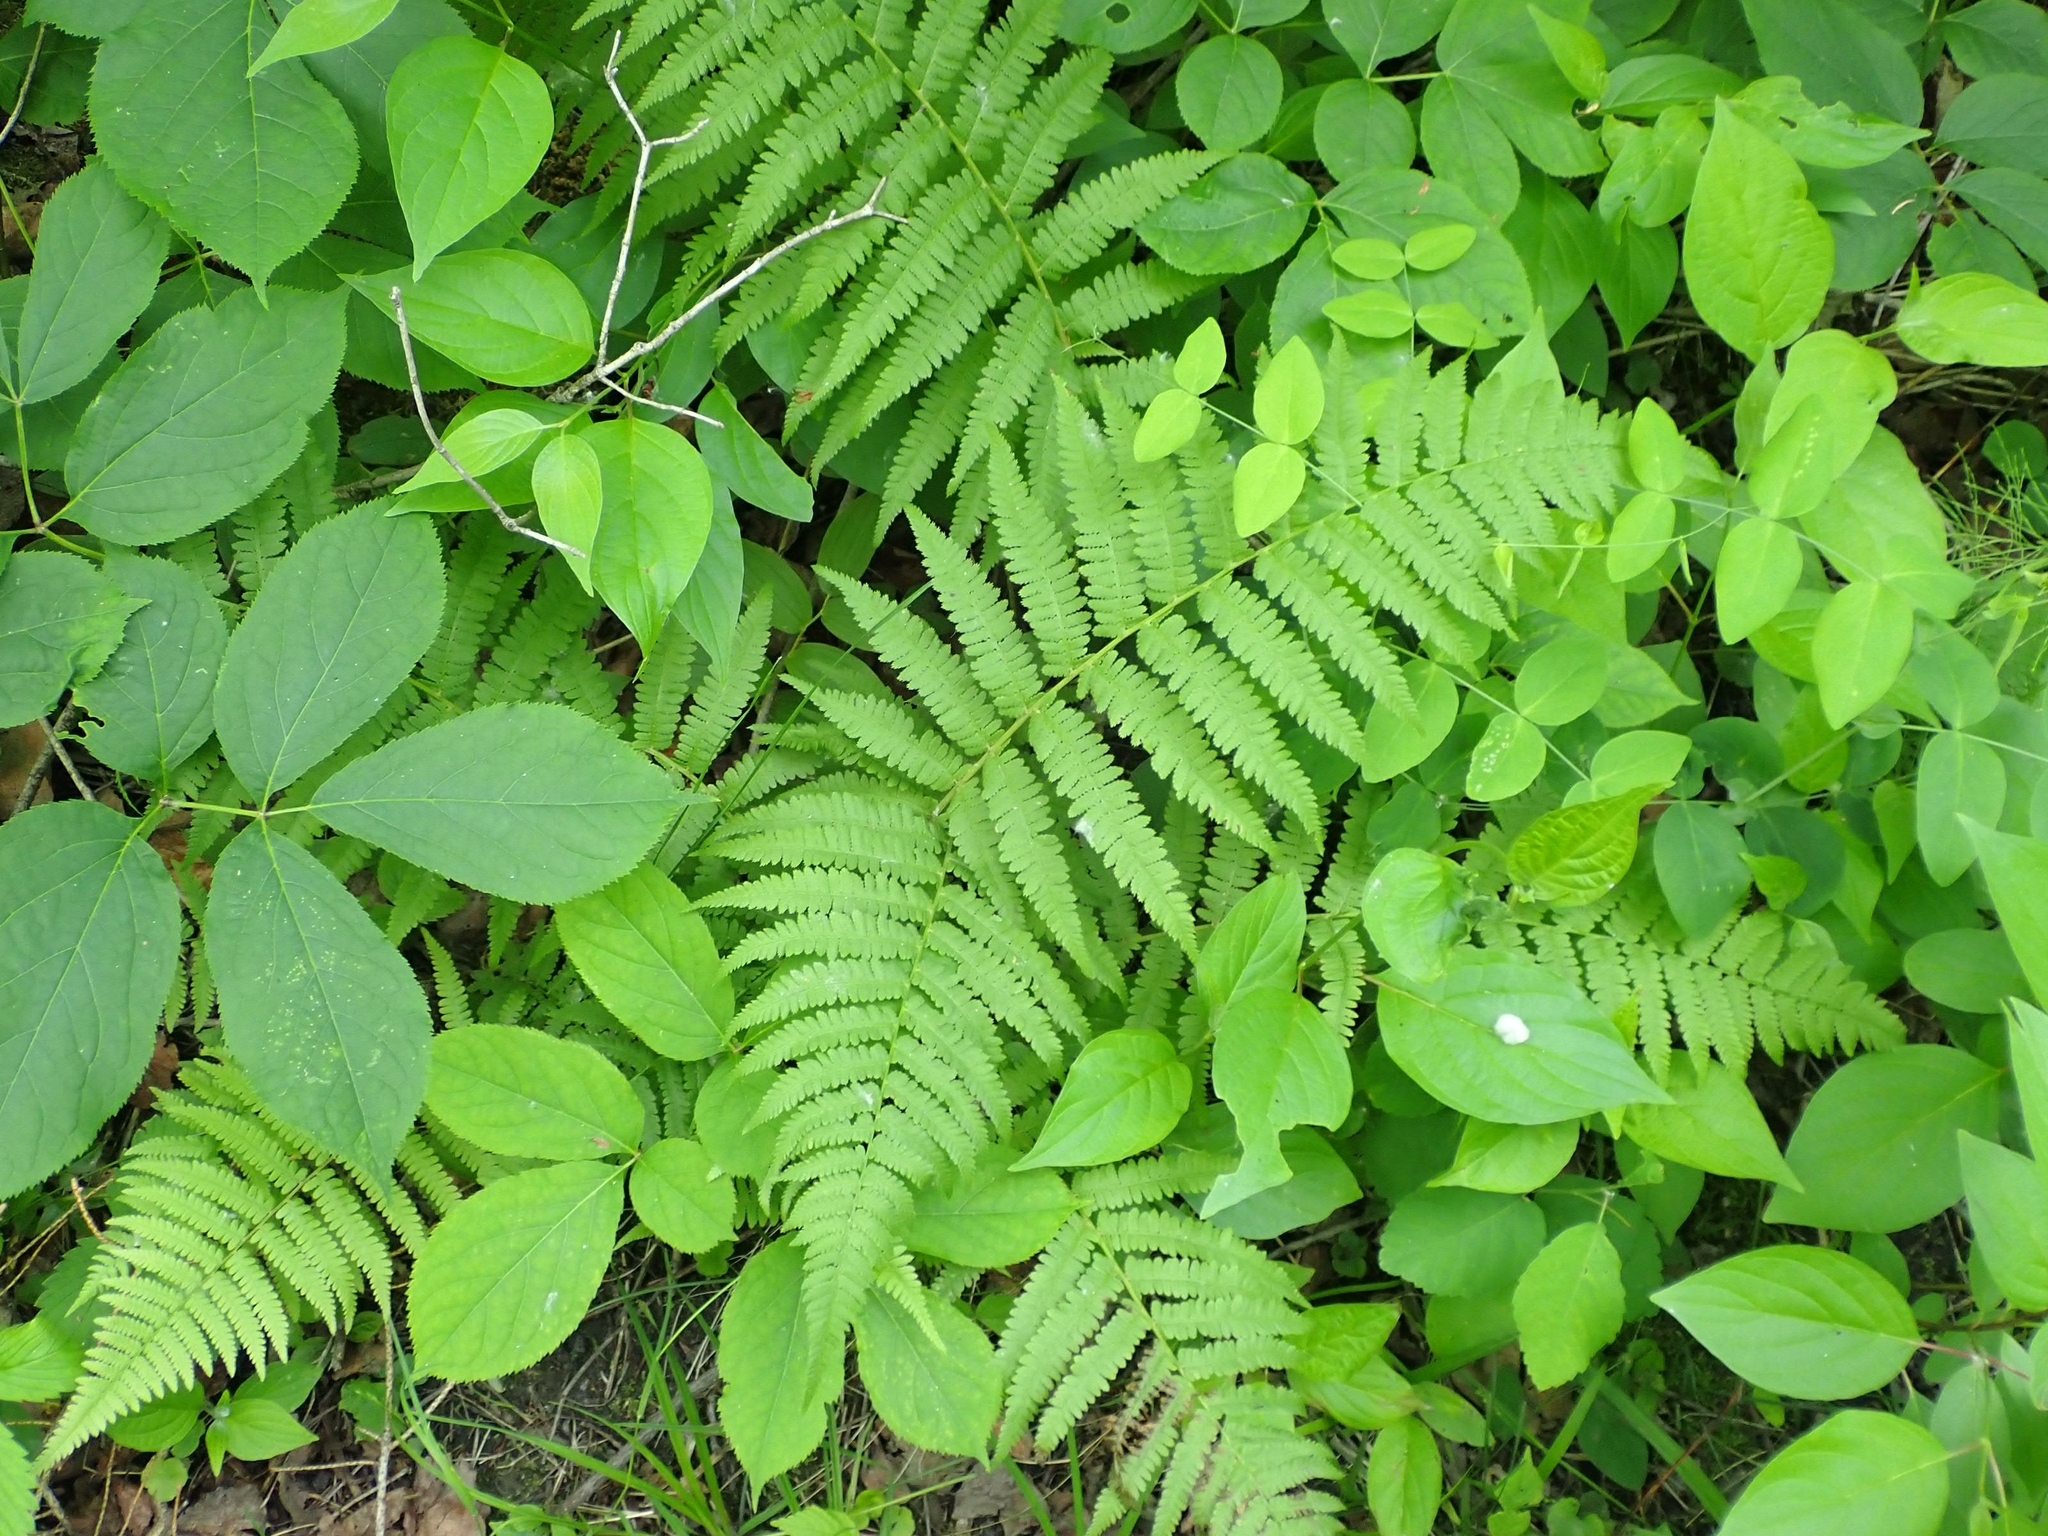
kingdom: Plantae
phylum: Tracheophyta
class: Polypodiopsida
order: Polypodiales
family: Athyriaceae
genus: Athyrium
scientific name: Athyrium angustum
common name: Northern lady fern
